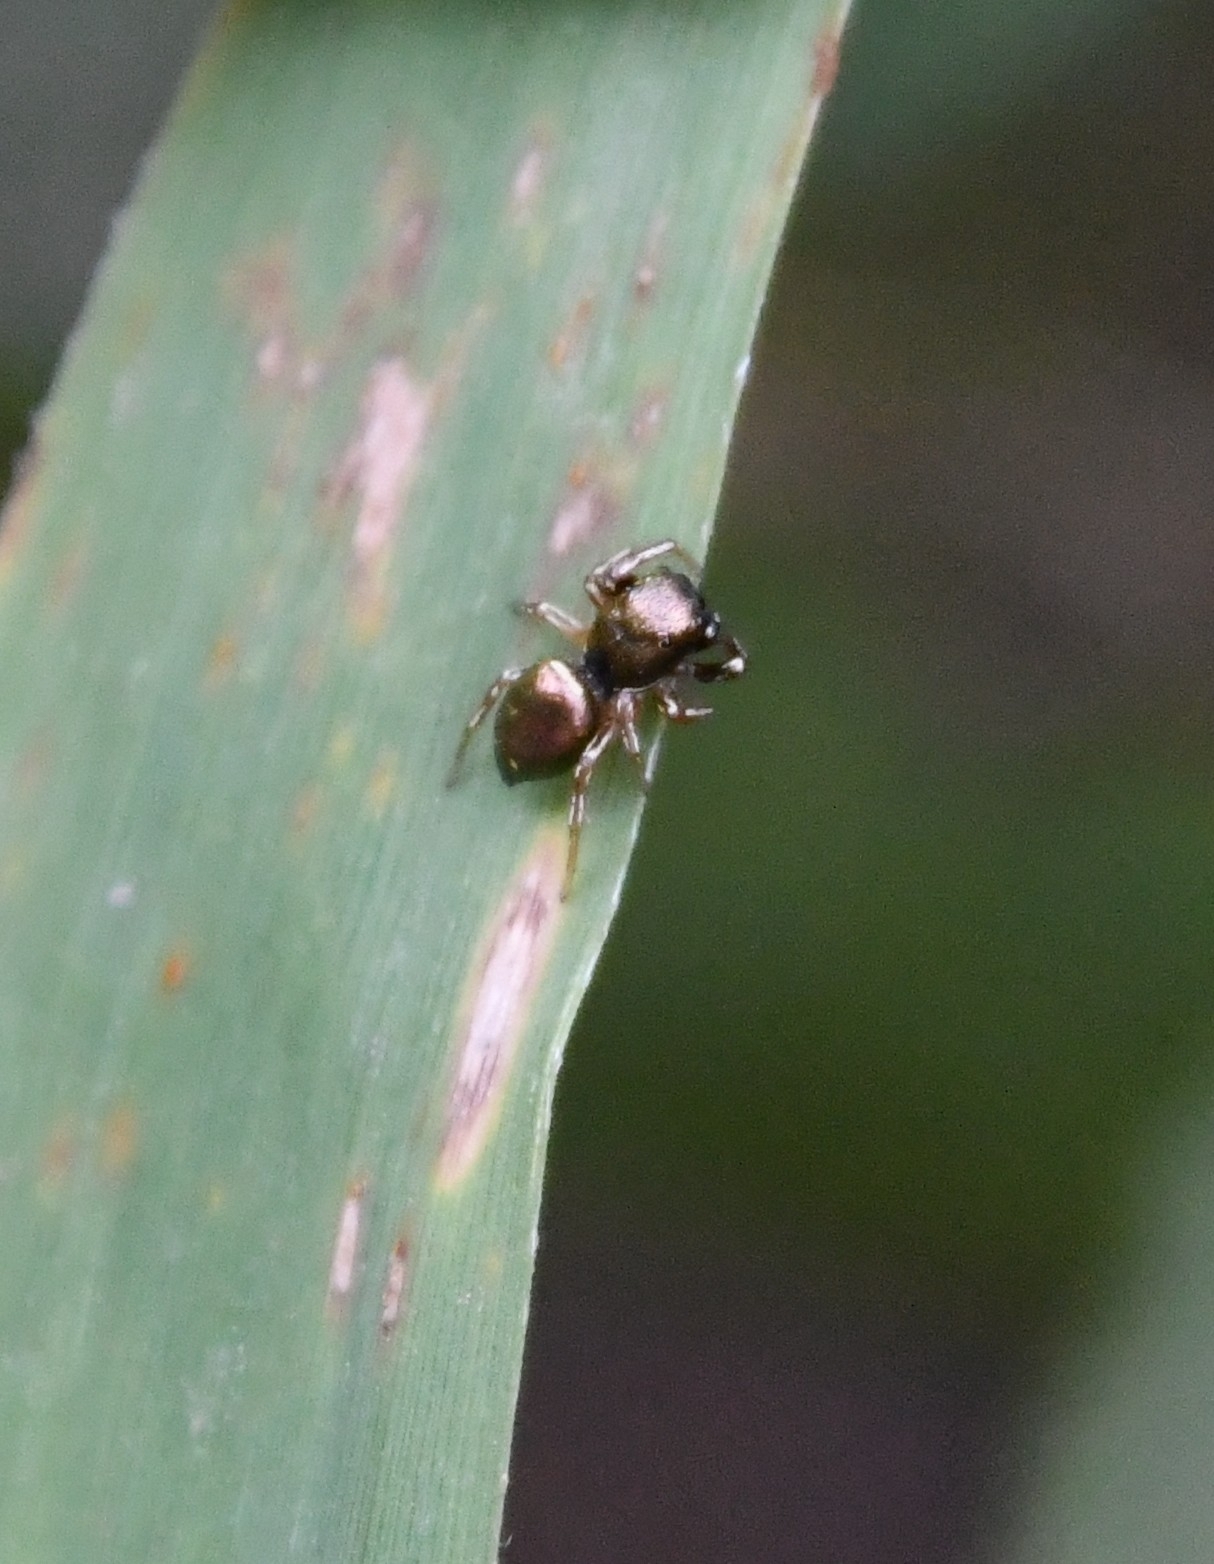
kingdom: Animalia
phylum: Arthropoda
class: Arachnida
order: Araneae
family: Salticidae
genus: Heliophanus
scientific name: Heliophanus auratus
